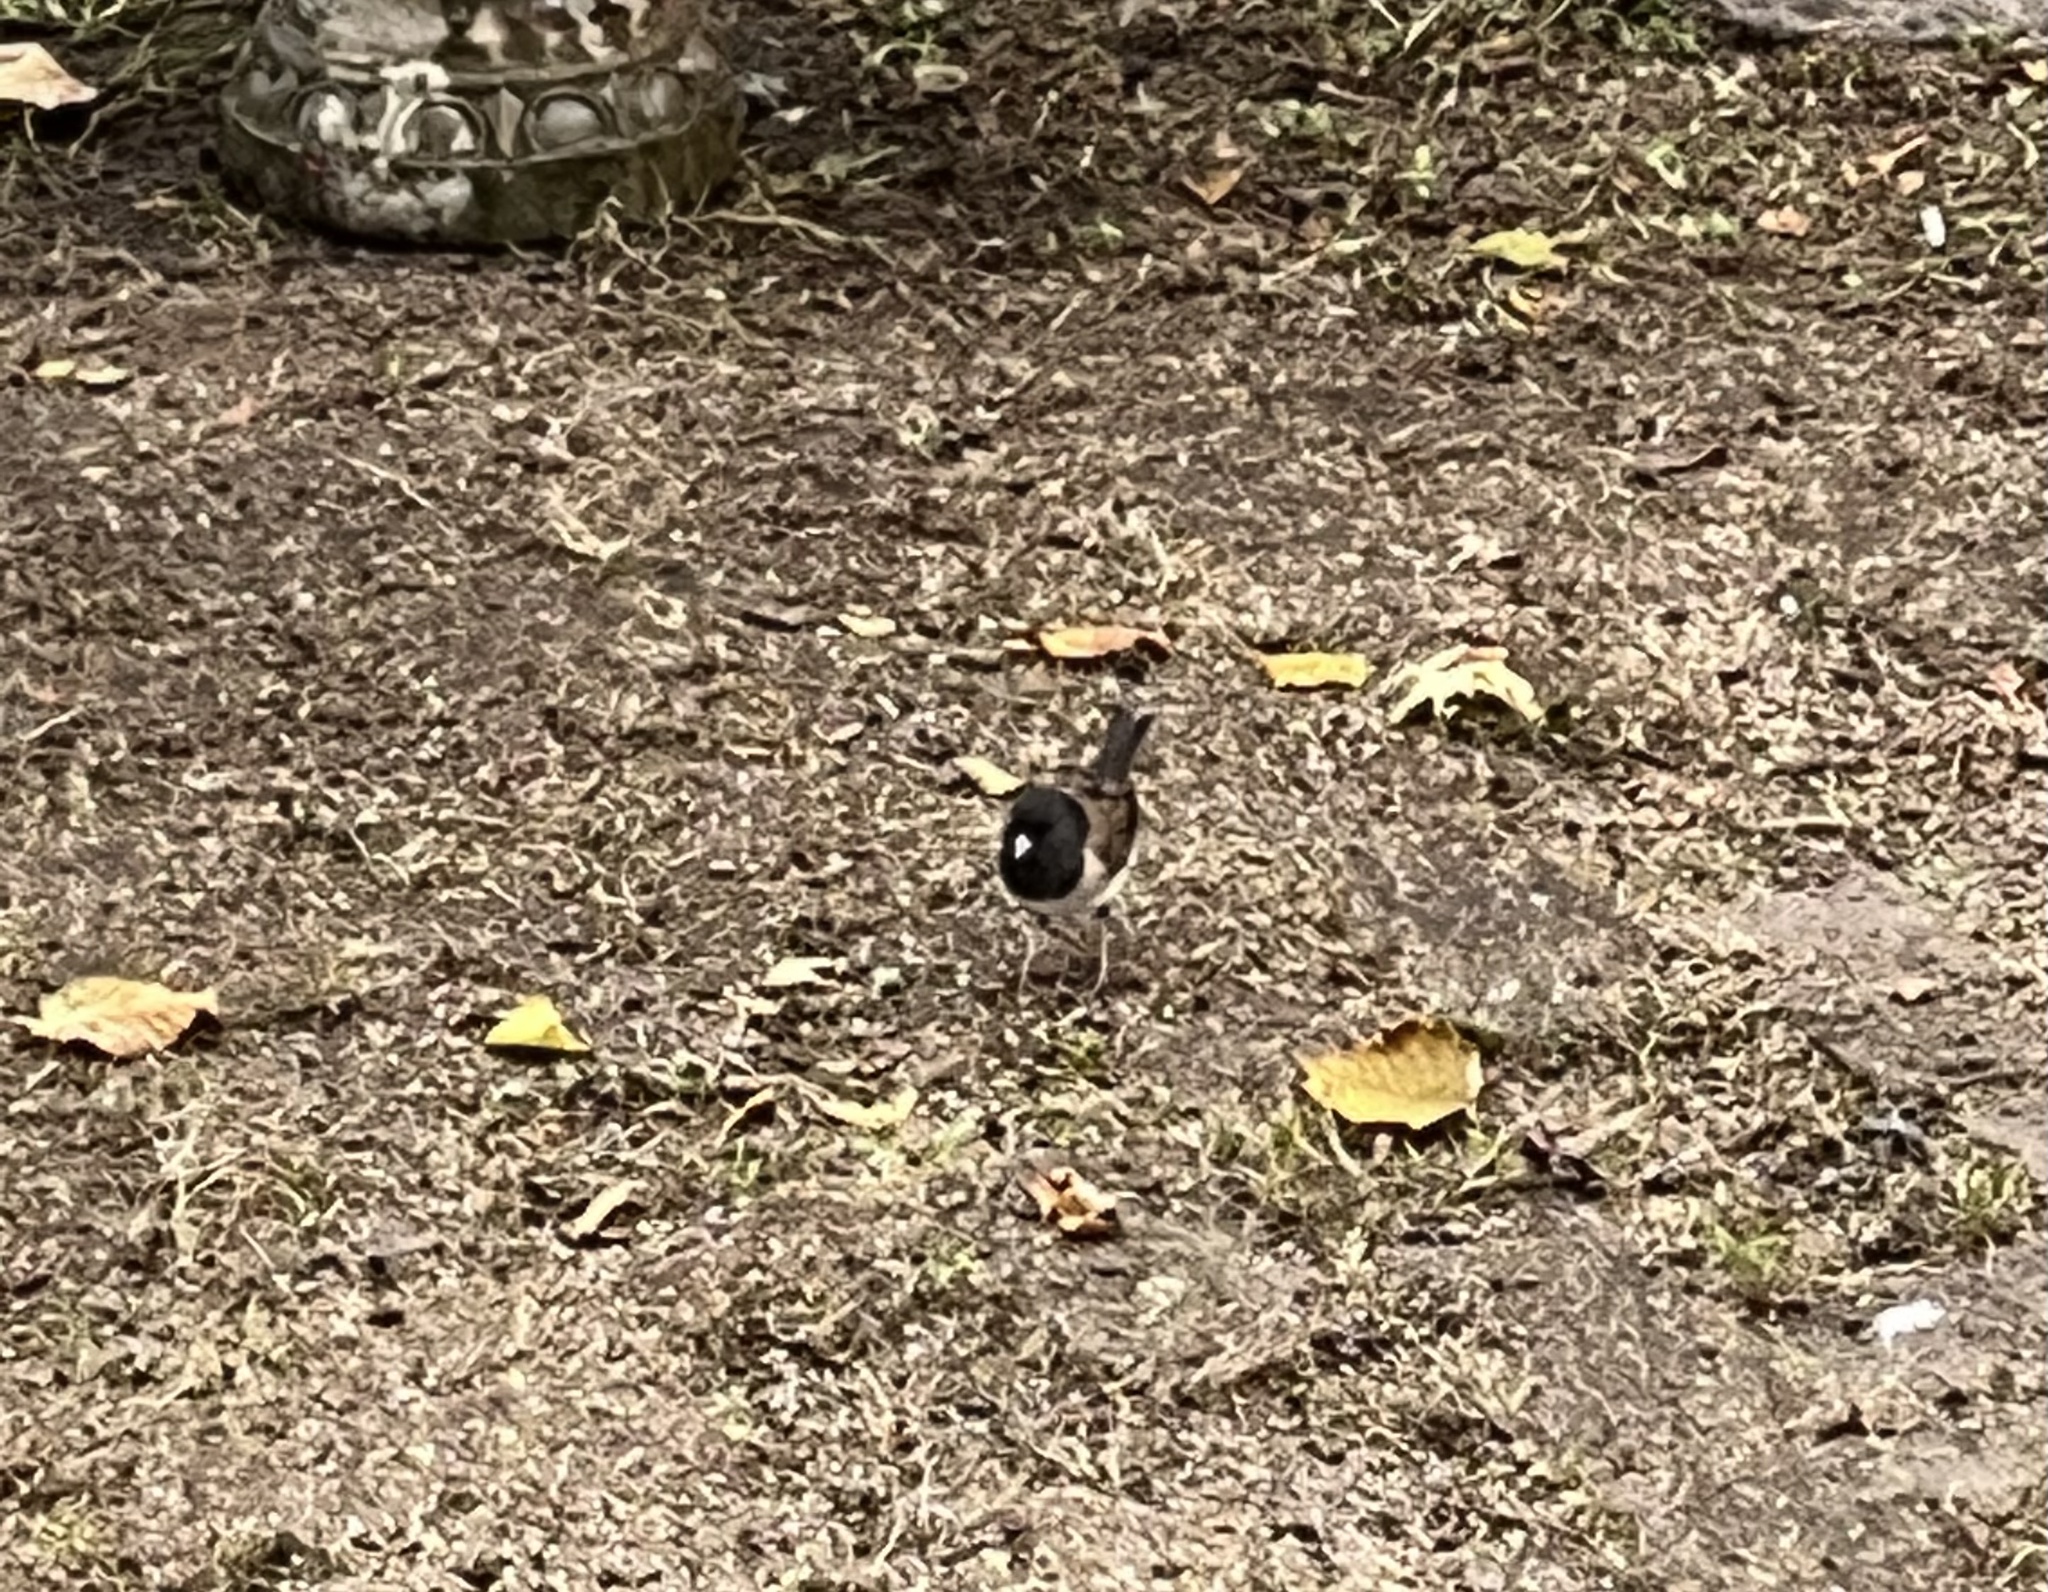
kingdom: Animalia
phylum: Chordata
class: Aves
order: Passeriformes
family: Passerellidae
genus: Junco
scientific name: Junco hyemalis
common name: Dark-eyed junco
